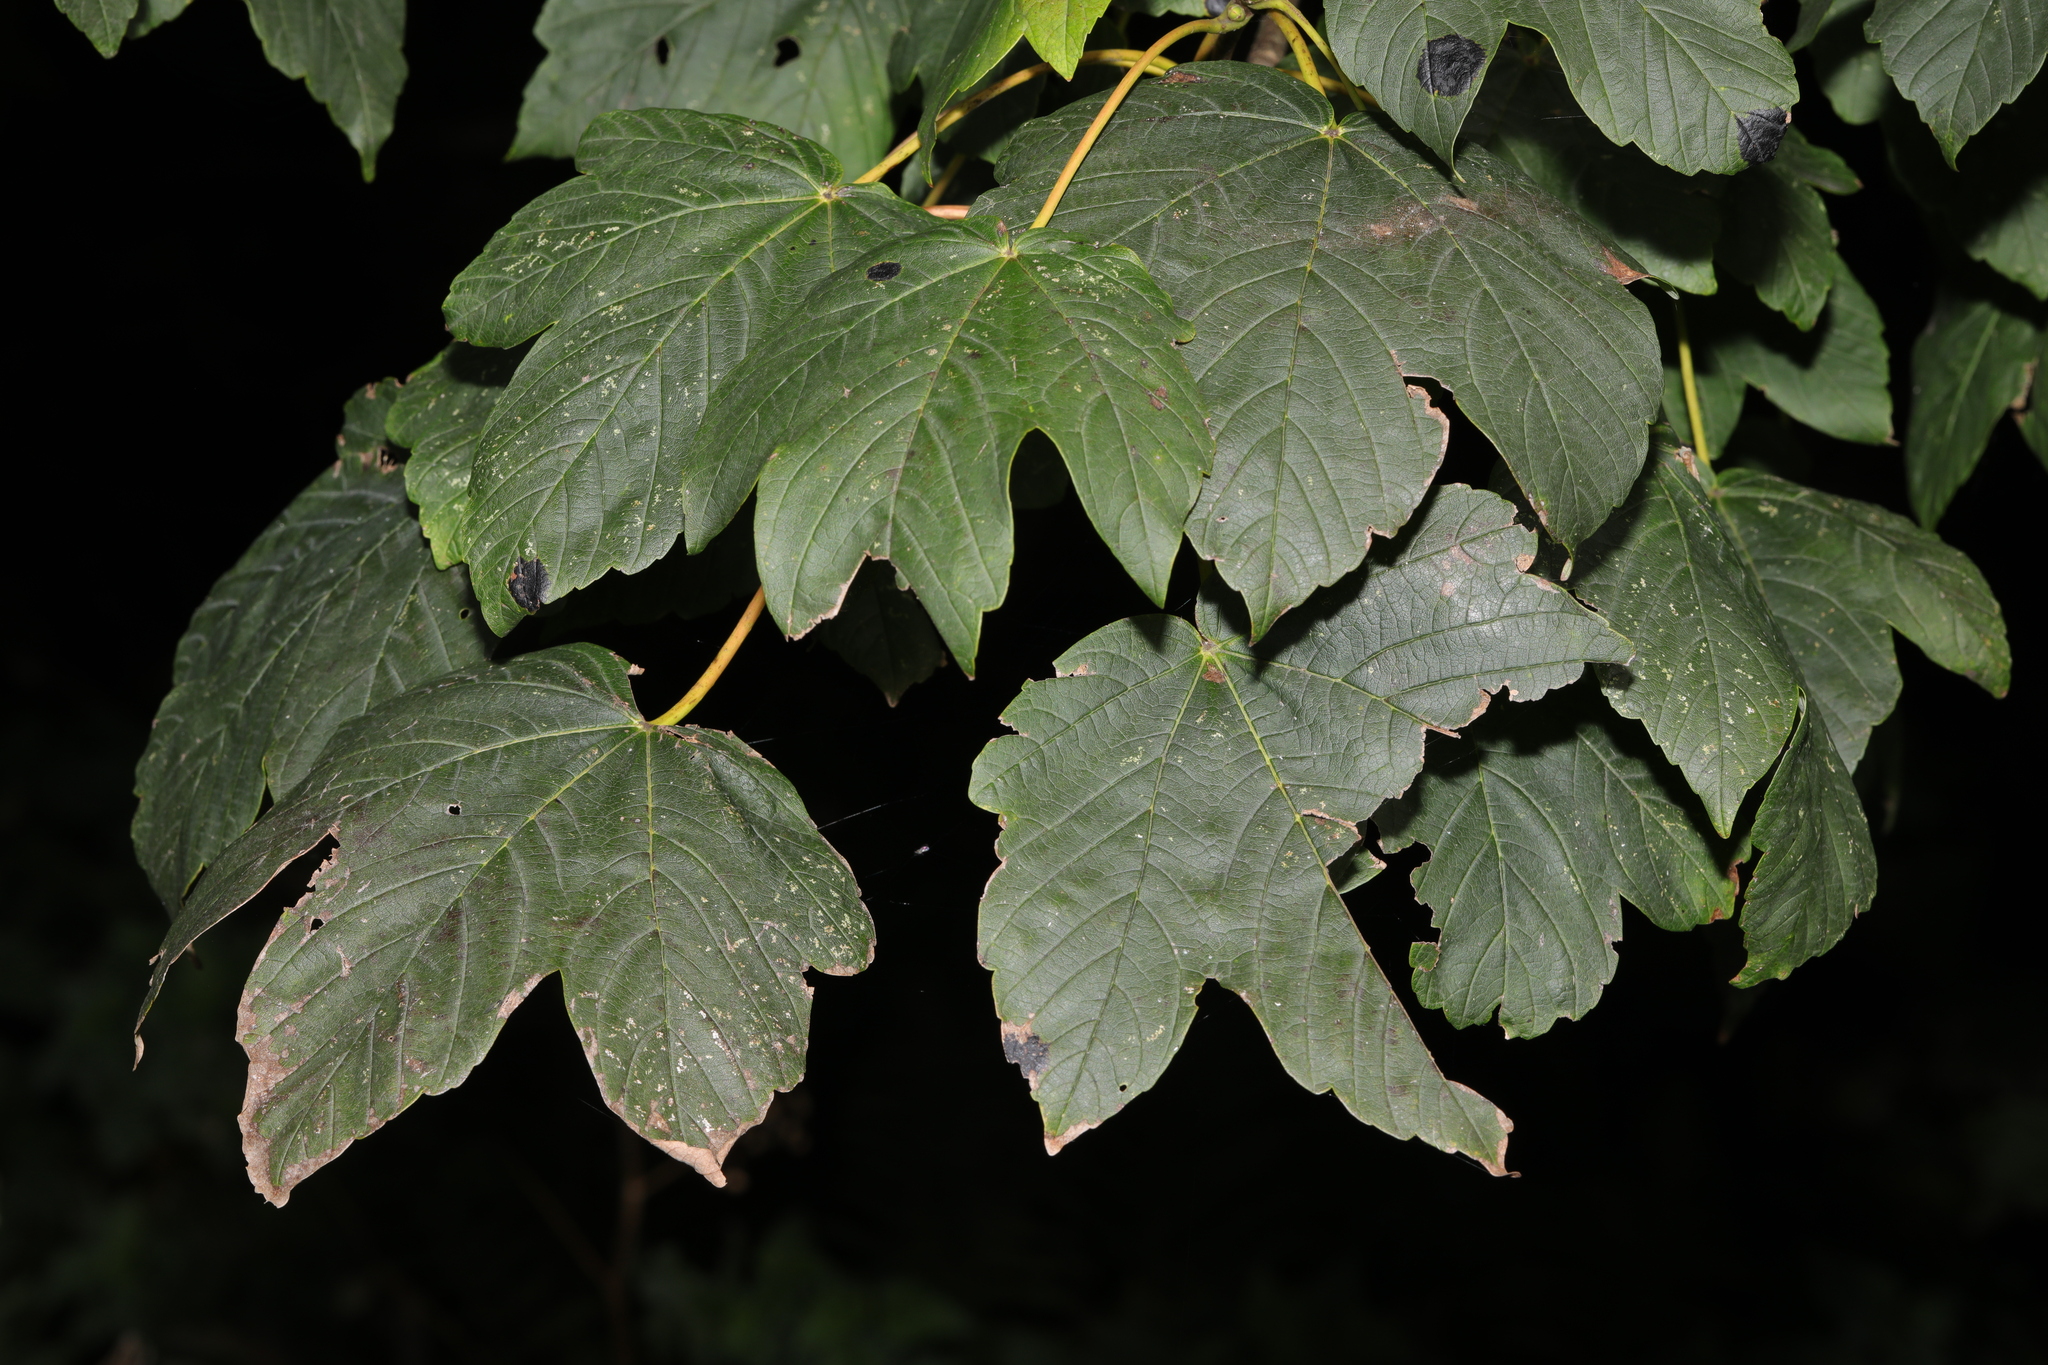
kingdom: Plantae
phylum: Tracheophyta
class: Magnoliopsida
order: Sapindales
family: Sapindaceae
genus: Acer
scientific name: Acer pseudoplatanus
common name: Sycamore
